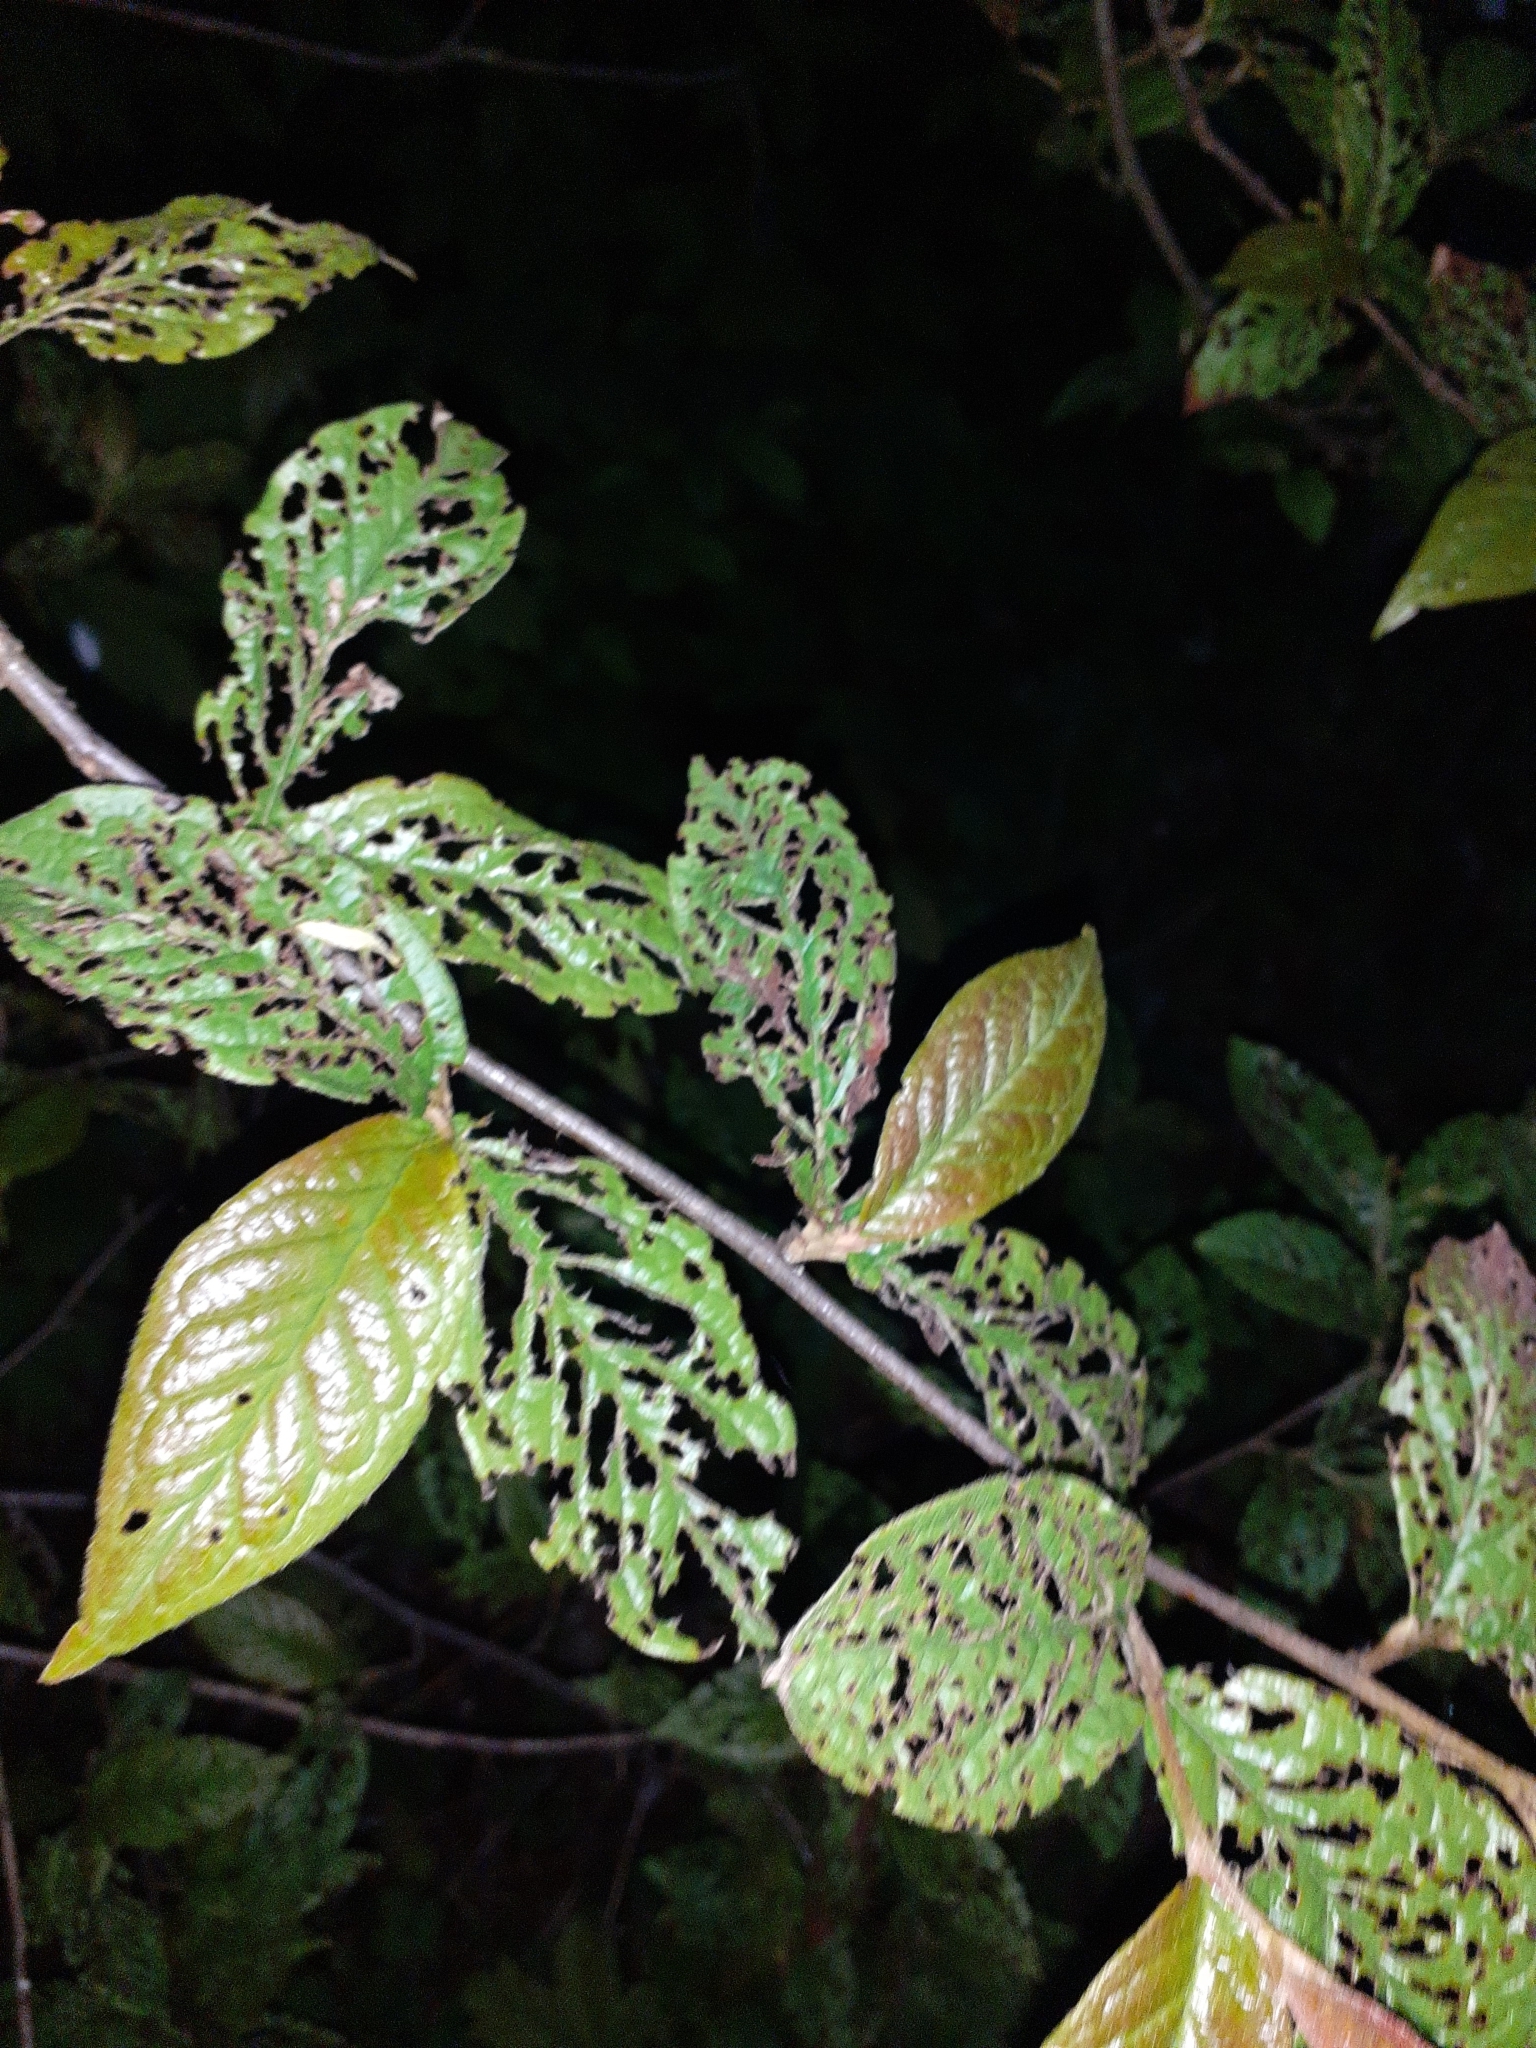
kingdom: Plantae
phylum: Tracheophyta
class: Magnoliopsida
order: Rosales
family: Rosaceae
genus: Cotoneaster
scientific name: Cotoneaster bullatus
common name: Hollyberry cotoneaster
